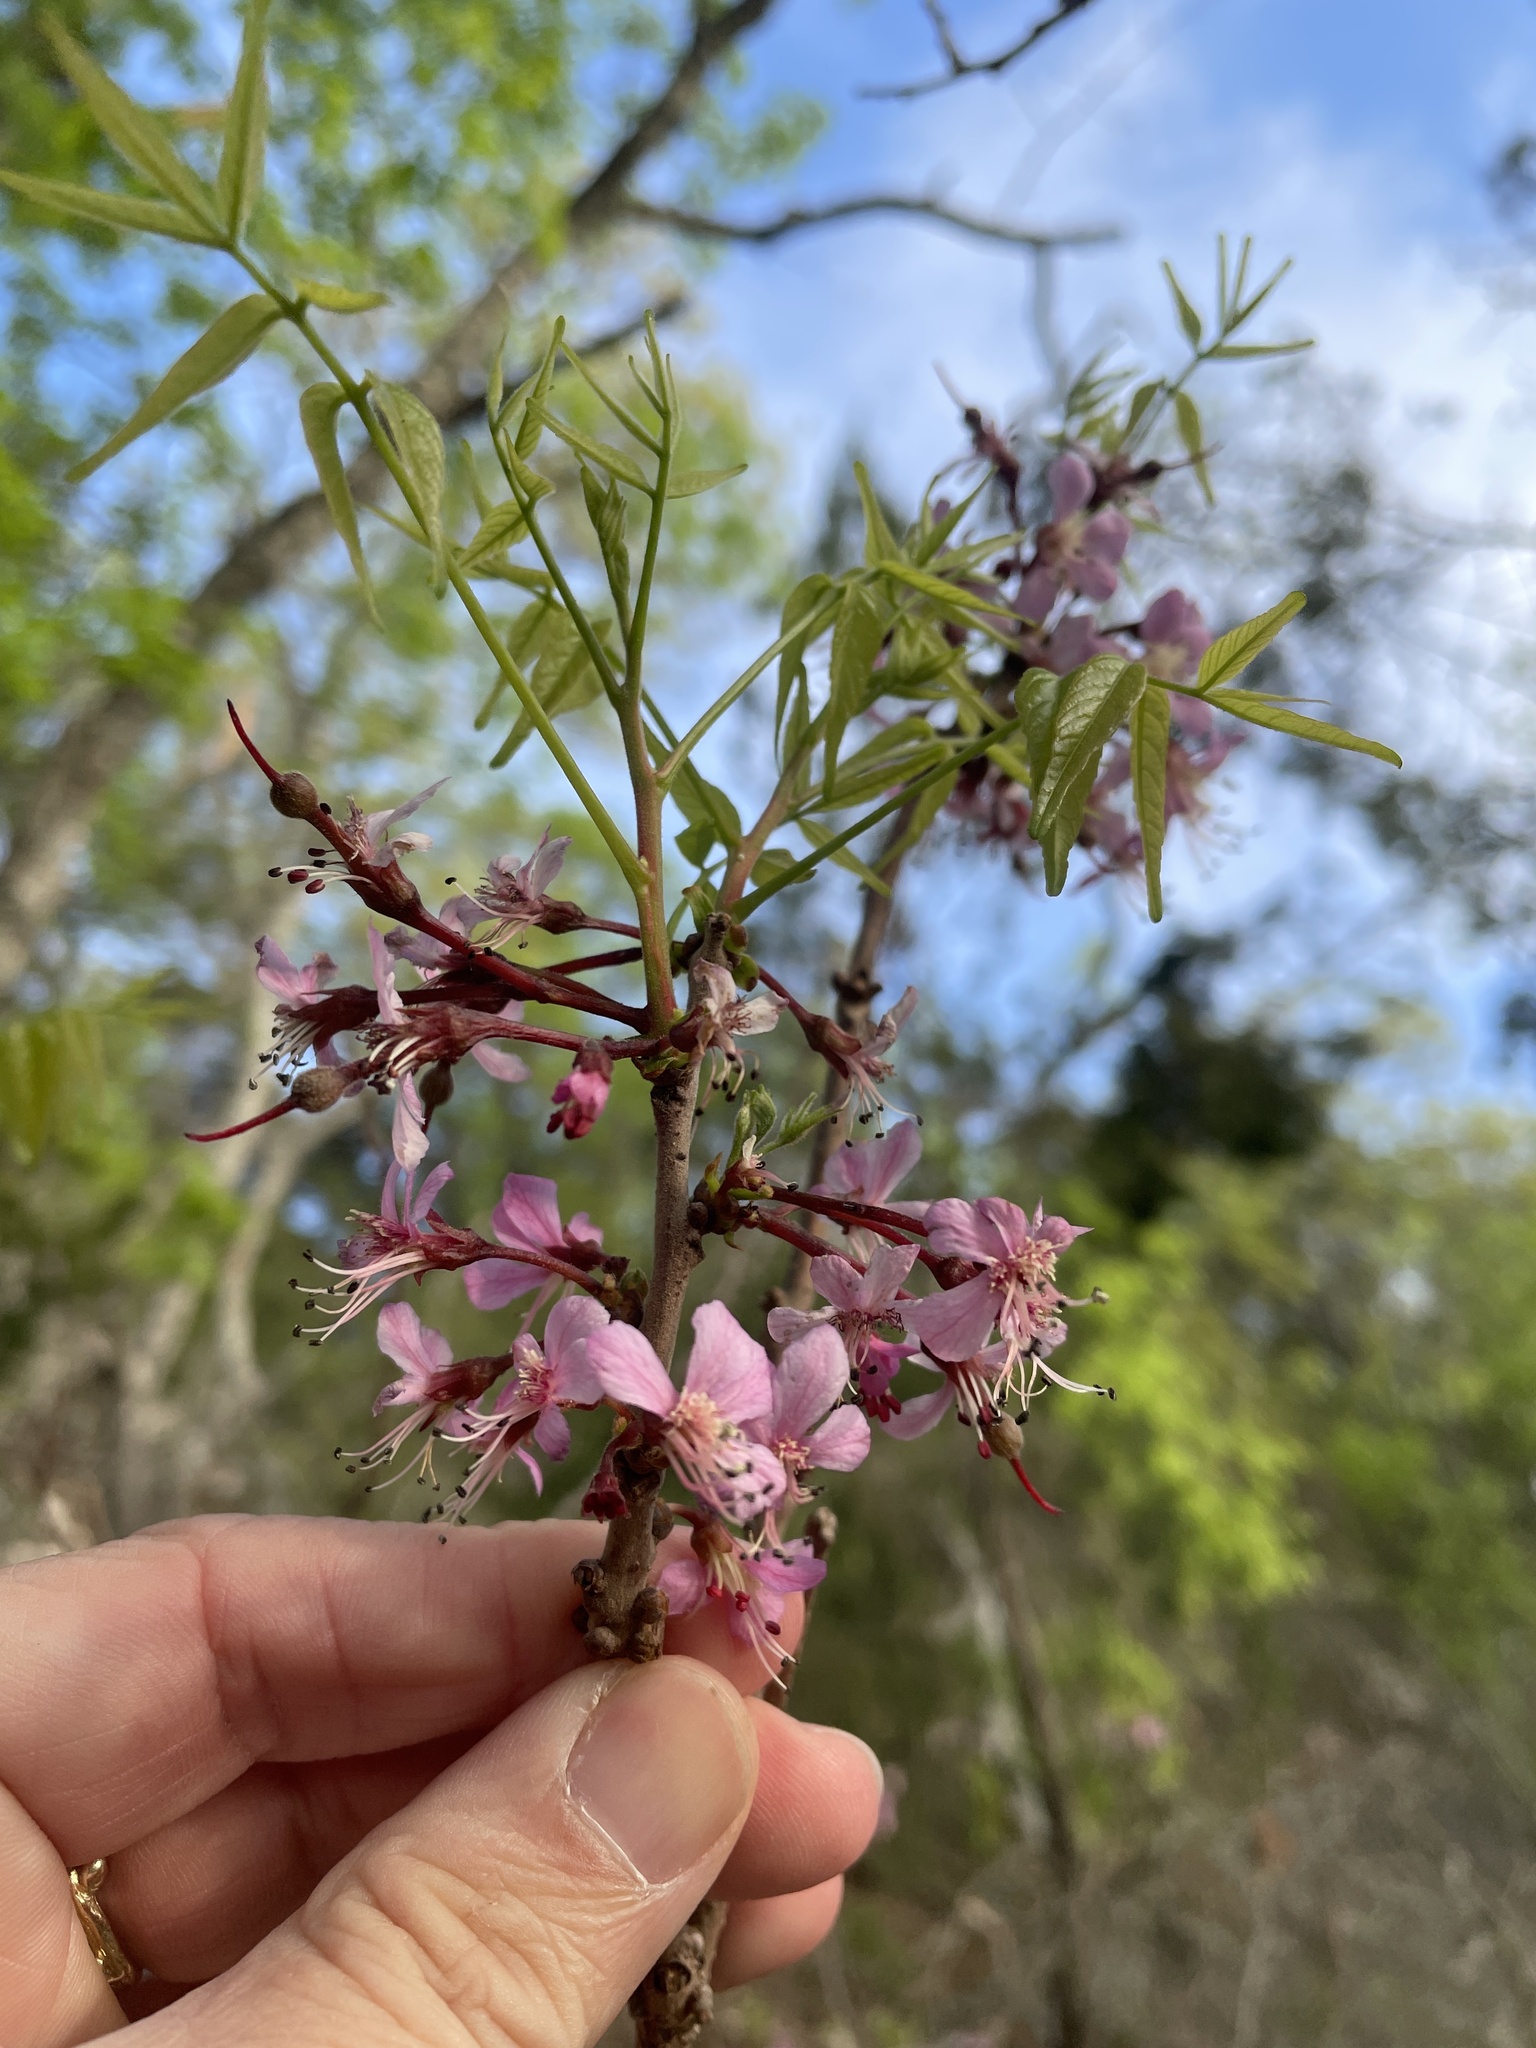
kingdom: Plantae
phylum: Tracheophyta
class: Magnoliopsida
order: Sapindales
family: Sapindaceae
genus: Ungnadia
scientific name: Ungnadia speciosa
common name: Texas-buckeye
